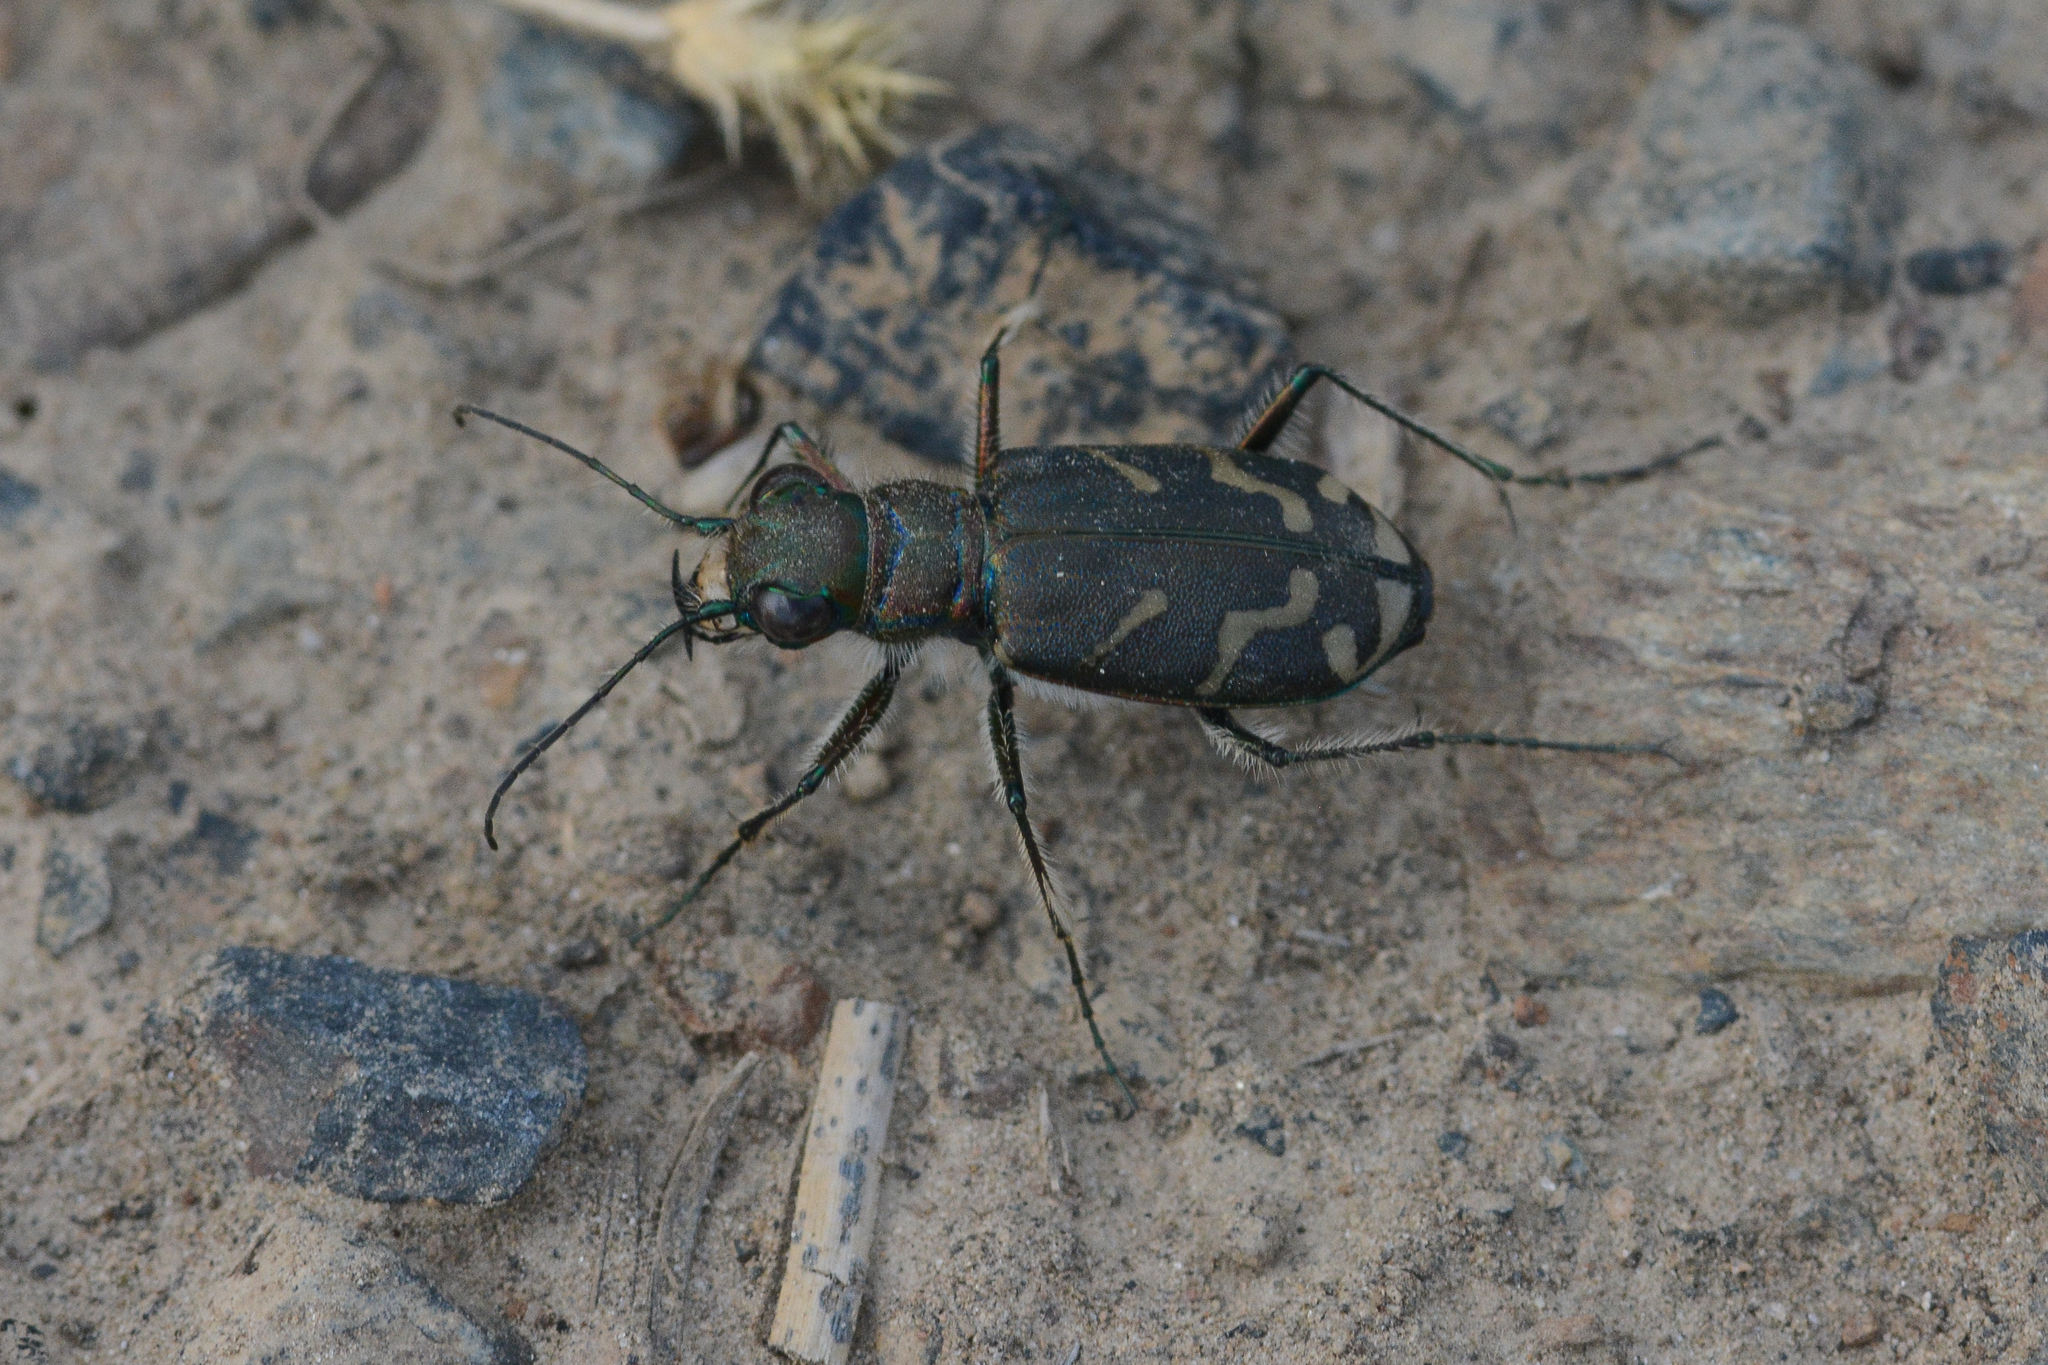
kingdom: Animalia
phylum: Arthropoda
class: Insecta
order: Coleoptera
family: Carabidae
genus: Cicindela
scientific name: Cicindela tranquebarica
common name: Oblique-lined tiger beetle
